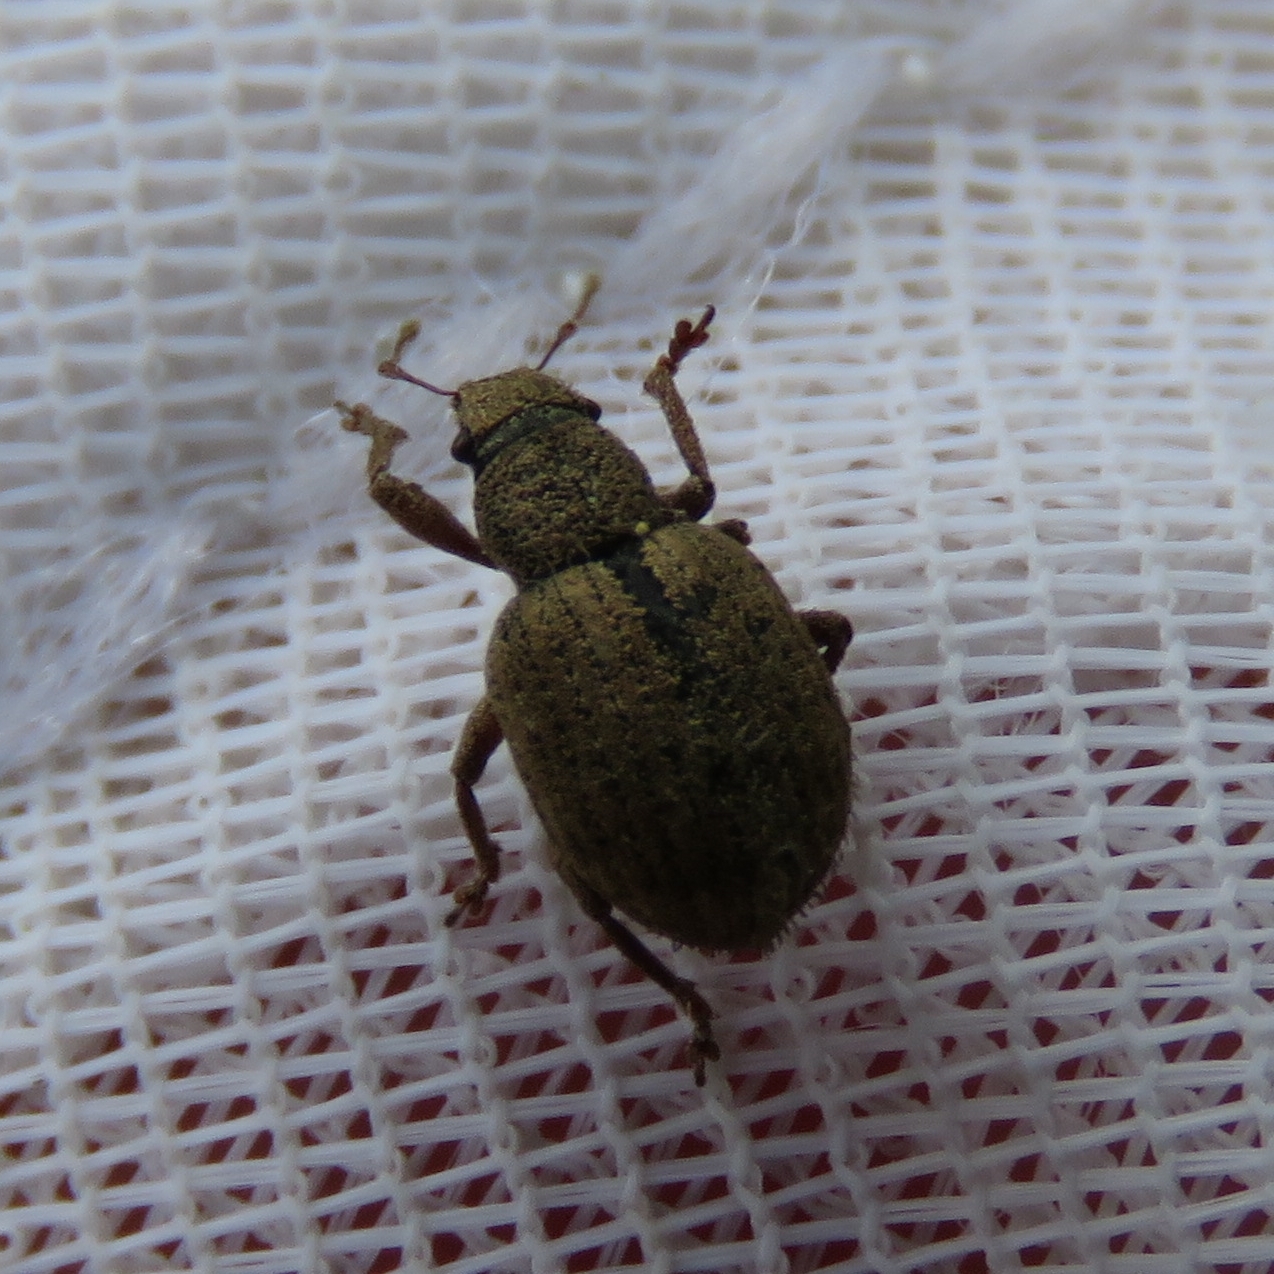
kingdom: Animalia
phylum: Arthropoda
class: Insecta
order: Coleoptera
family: Curculionidae
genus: Strophosoma
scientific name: Strophosoma melanogrammum
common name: Weevil
